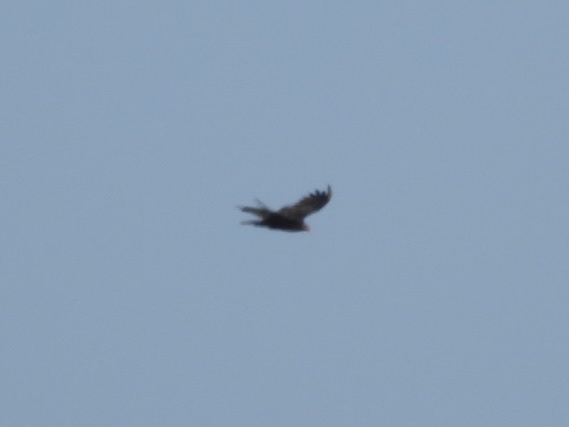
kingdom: Animalia
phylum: Chordata
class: Aves
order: Accipitriformes
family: Cathartidae
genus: Cathartes
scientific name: Cathartes aura
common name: Turkey vulture
